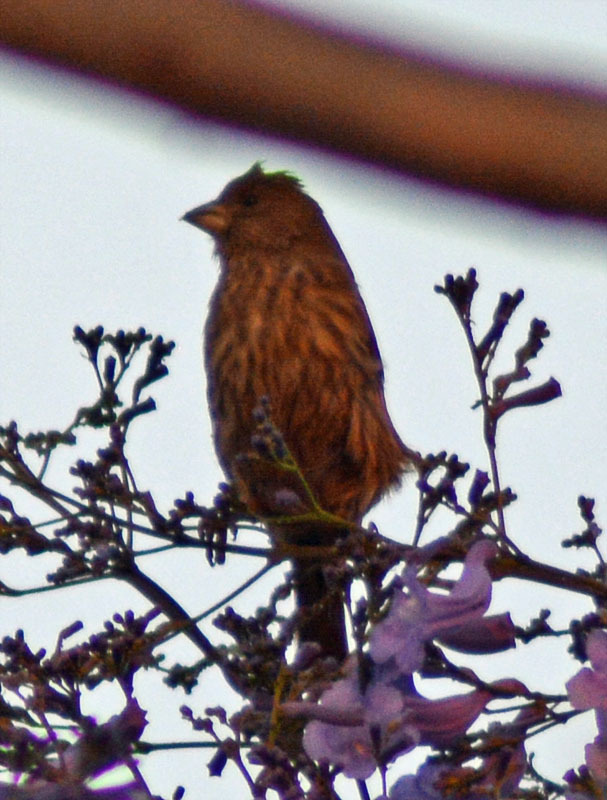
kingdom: Animalia
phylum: Chordata
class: Aves
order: Passeriformes
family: Fringillidae
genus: Haemorhous
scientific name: Haemorhous mexicanus
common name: House finch
